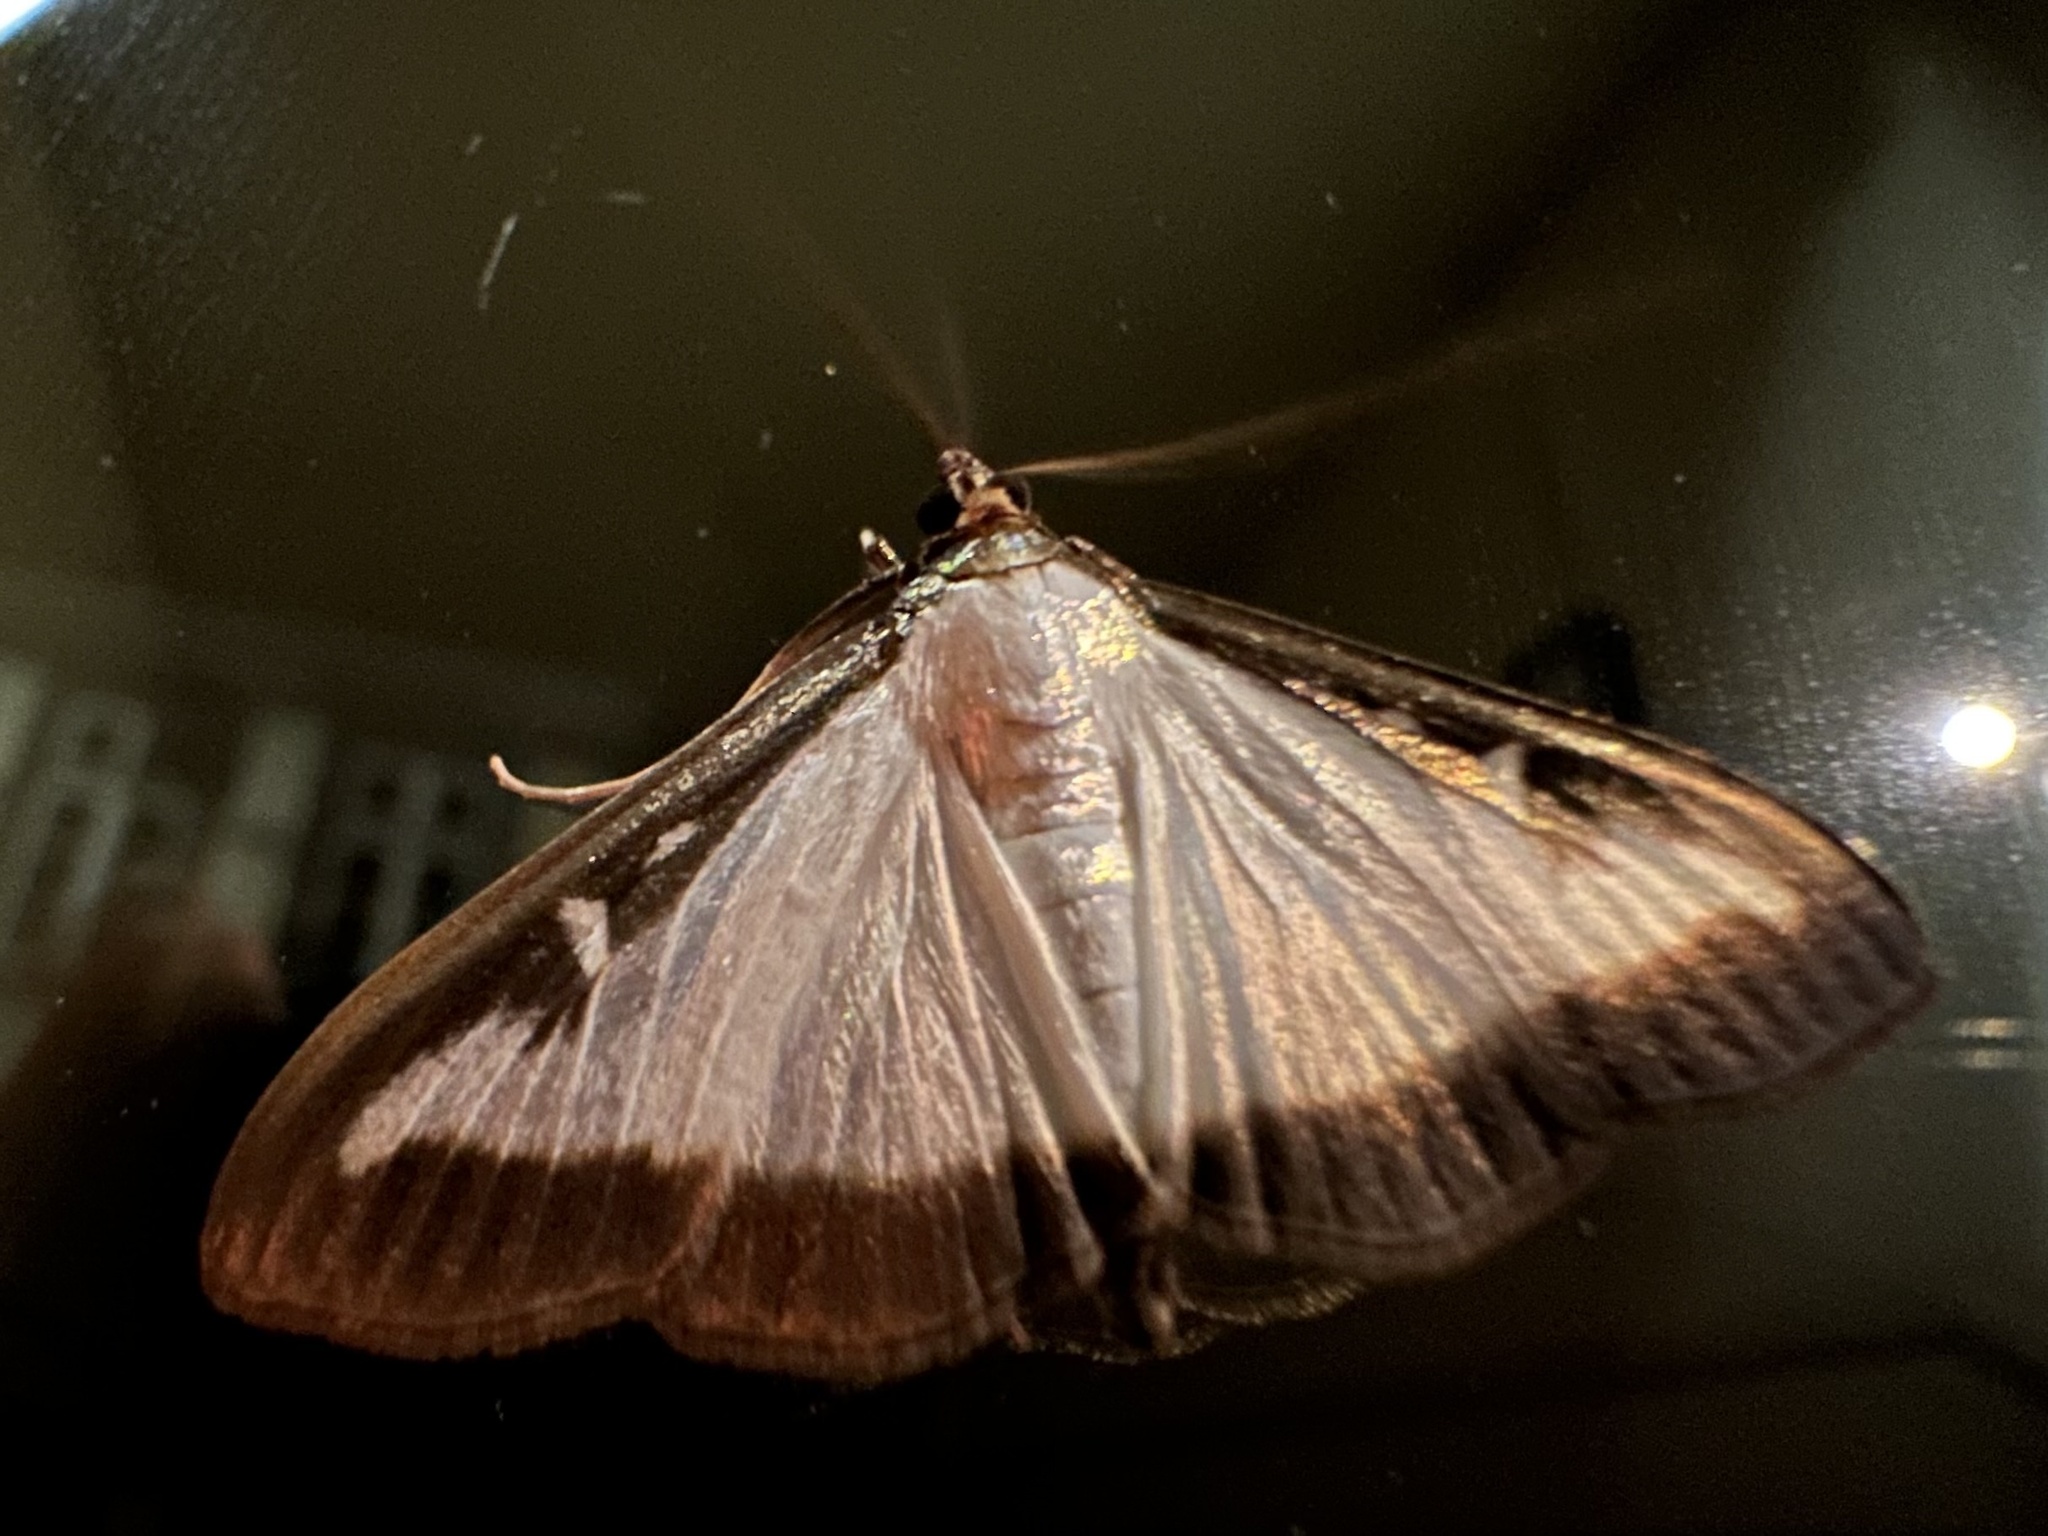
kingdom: Animalia
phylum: Arthropoda
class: Insecta
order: Lepidoptera
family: Crambidae
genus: Cydalima
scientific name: Cydalima perspectalis
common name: Box tree moth
